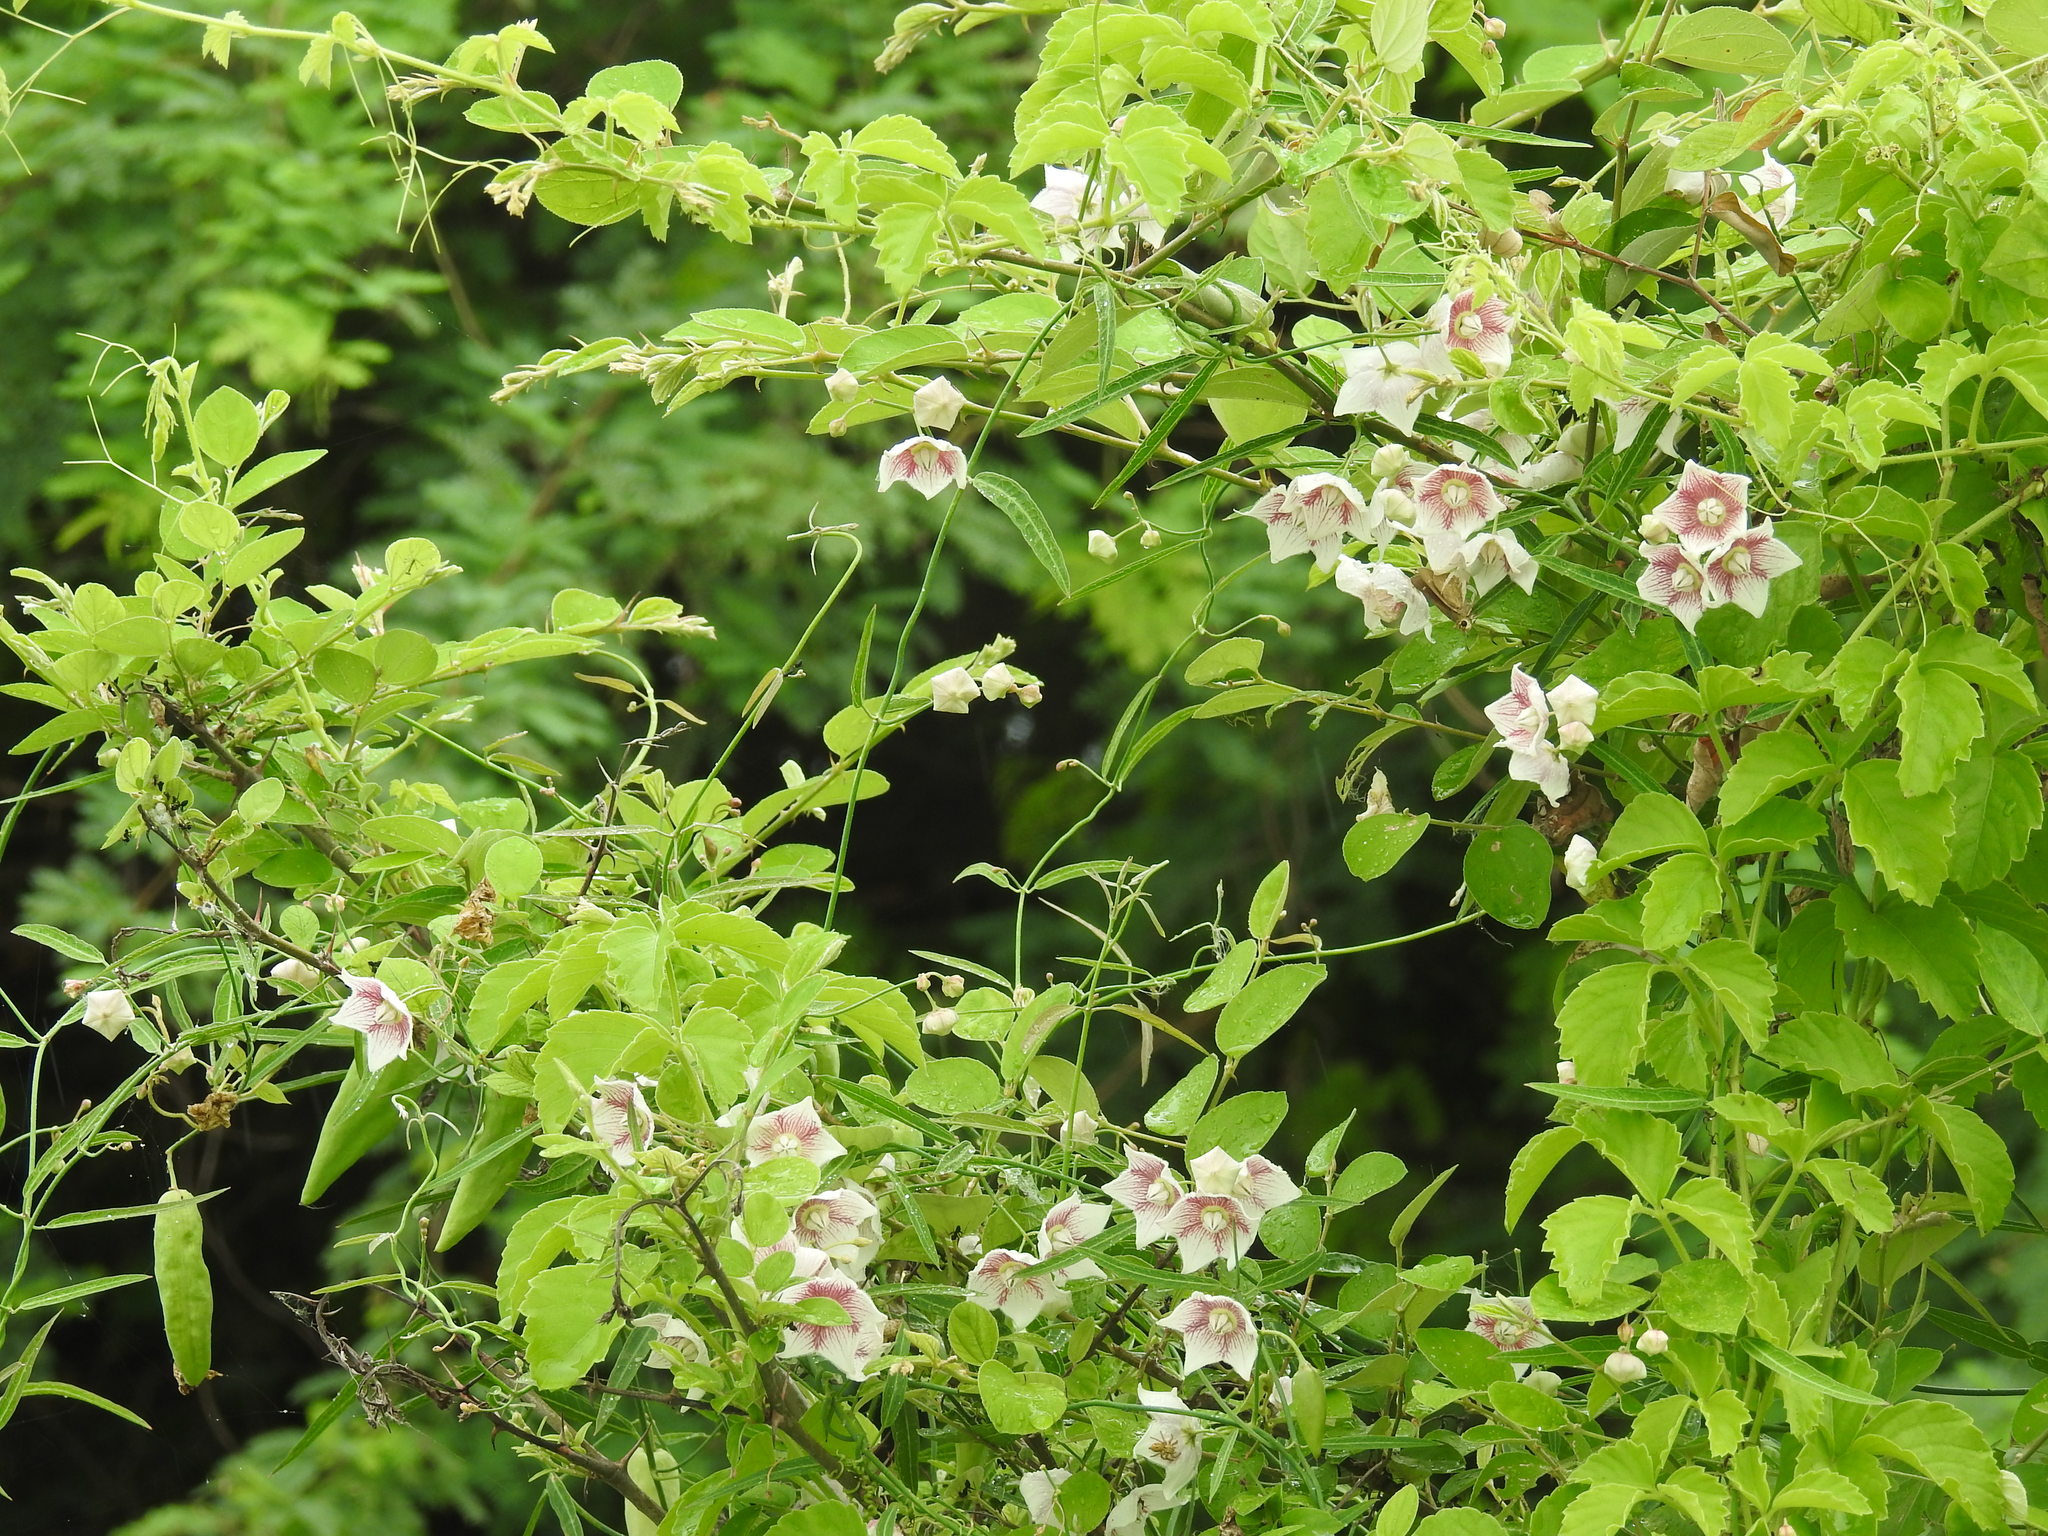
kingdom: Plantae
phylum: Tracheophyta
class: Magnoliopsida
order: Gentianales
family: Apocynaceae
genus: Oxystelma
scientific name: Oxystelma wallichii
